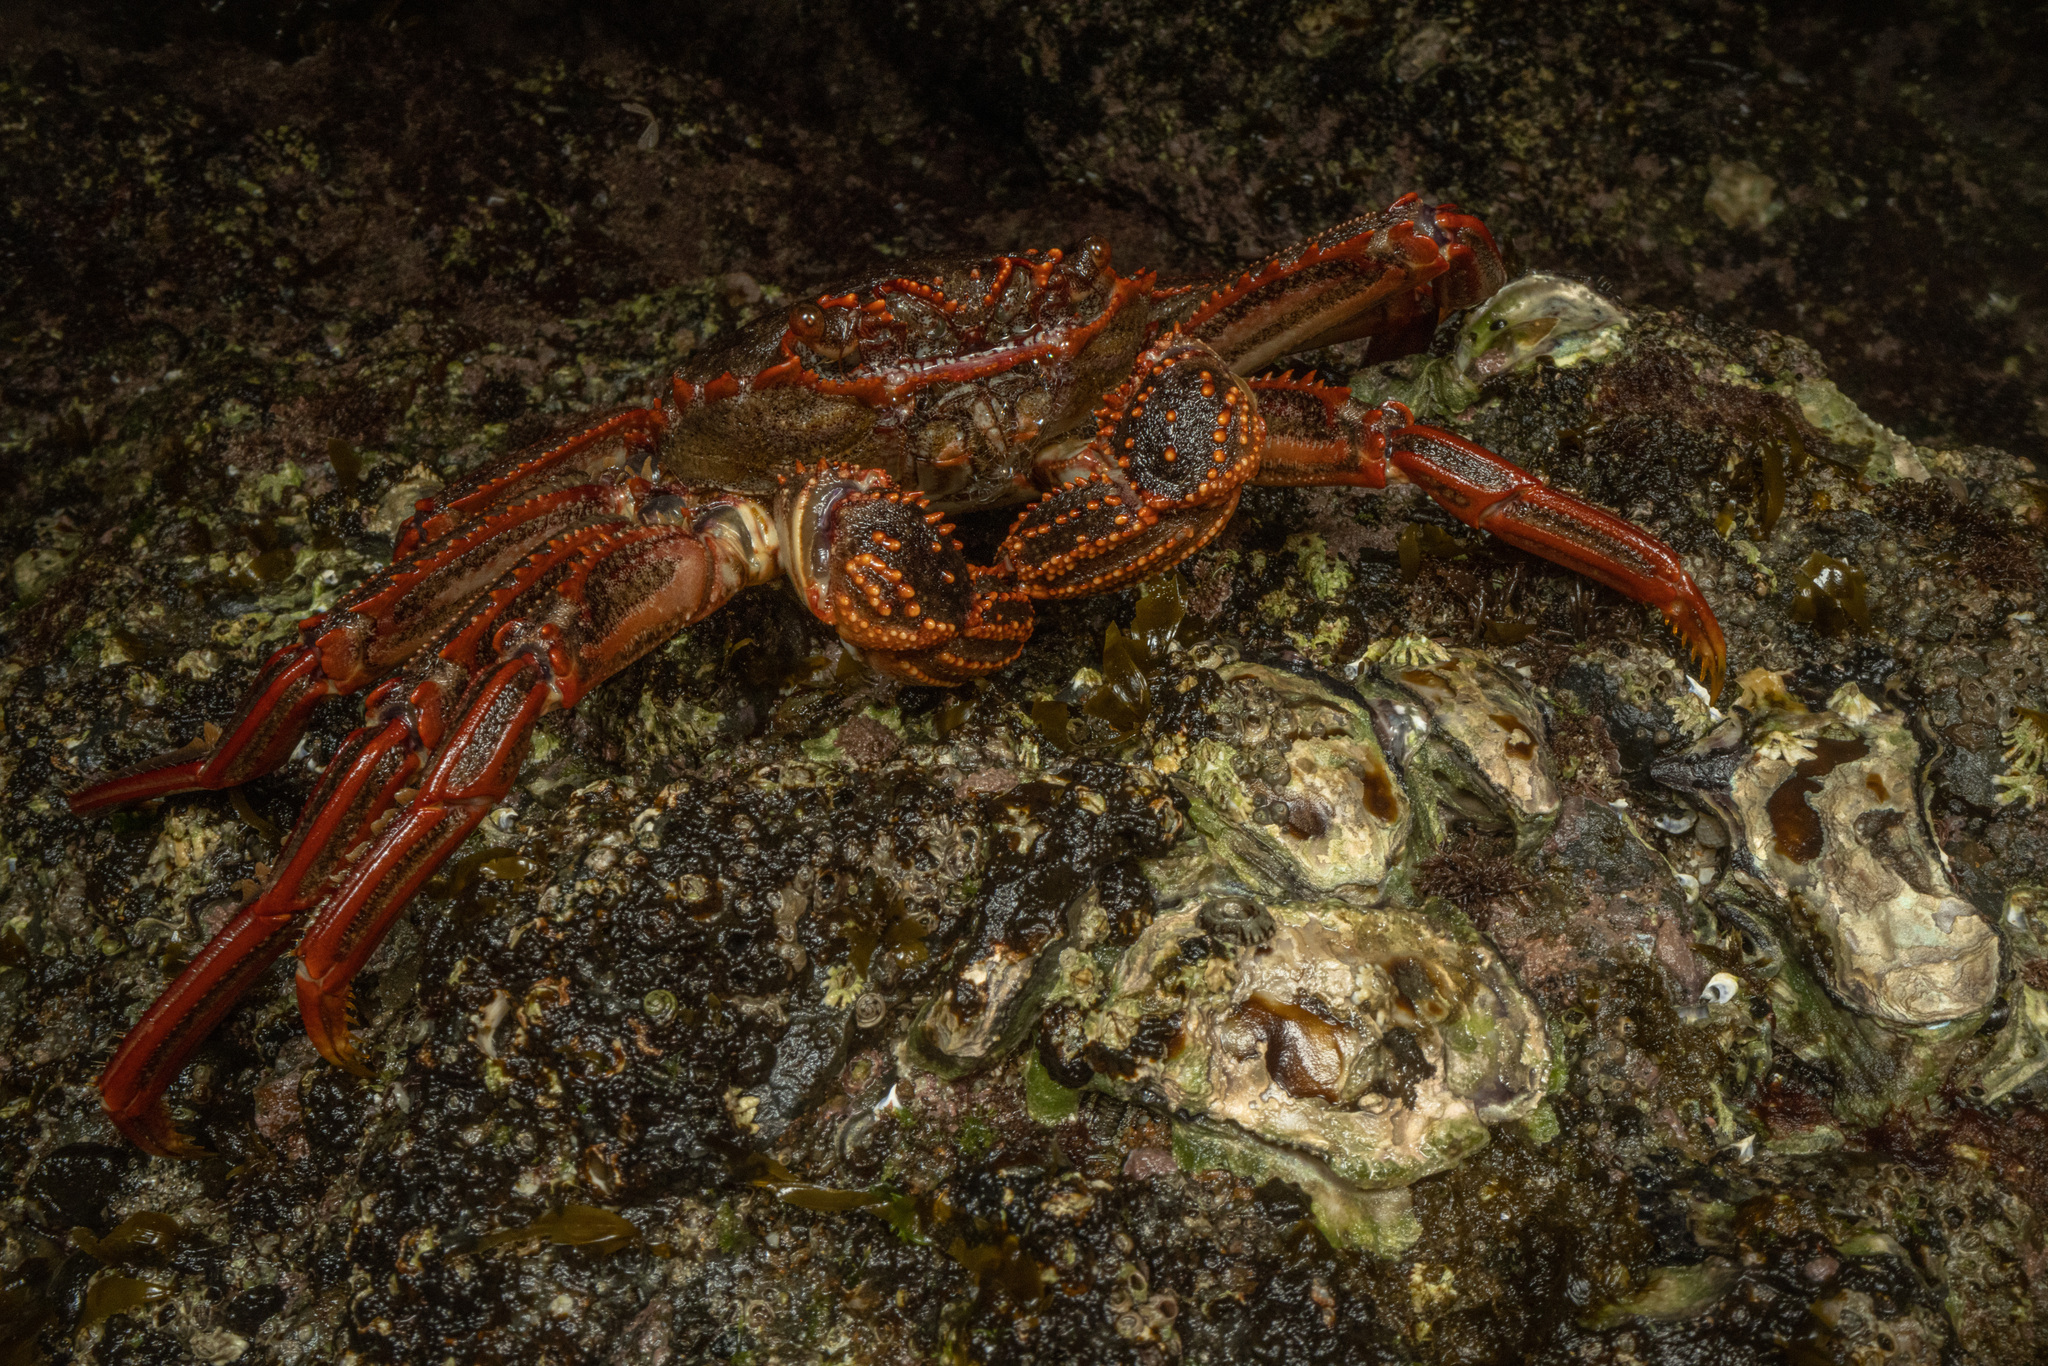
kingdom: Animalia
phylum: Arthropoda
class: Malacostraca
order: Decapoda
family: Plagusiidae
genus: Guinusia
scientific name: Guinusia chabrus
